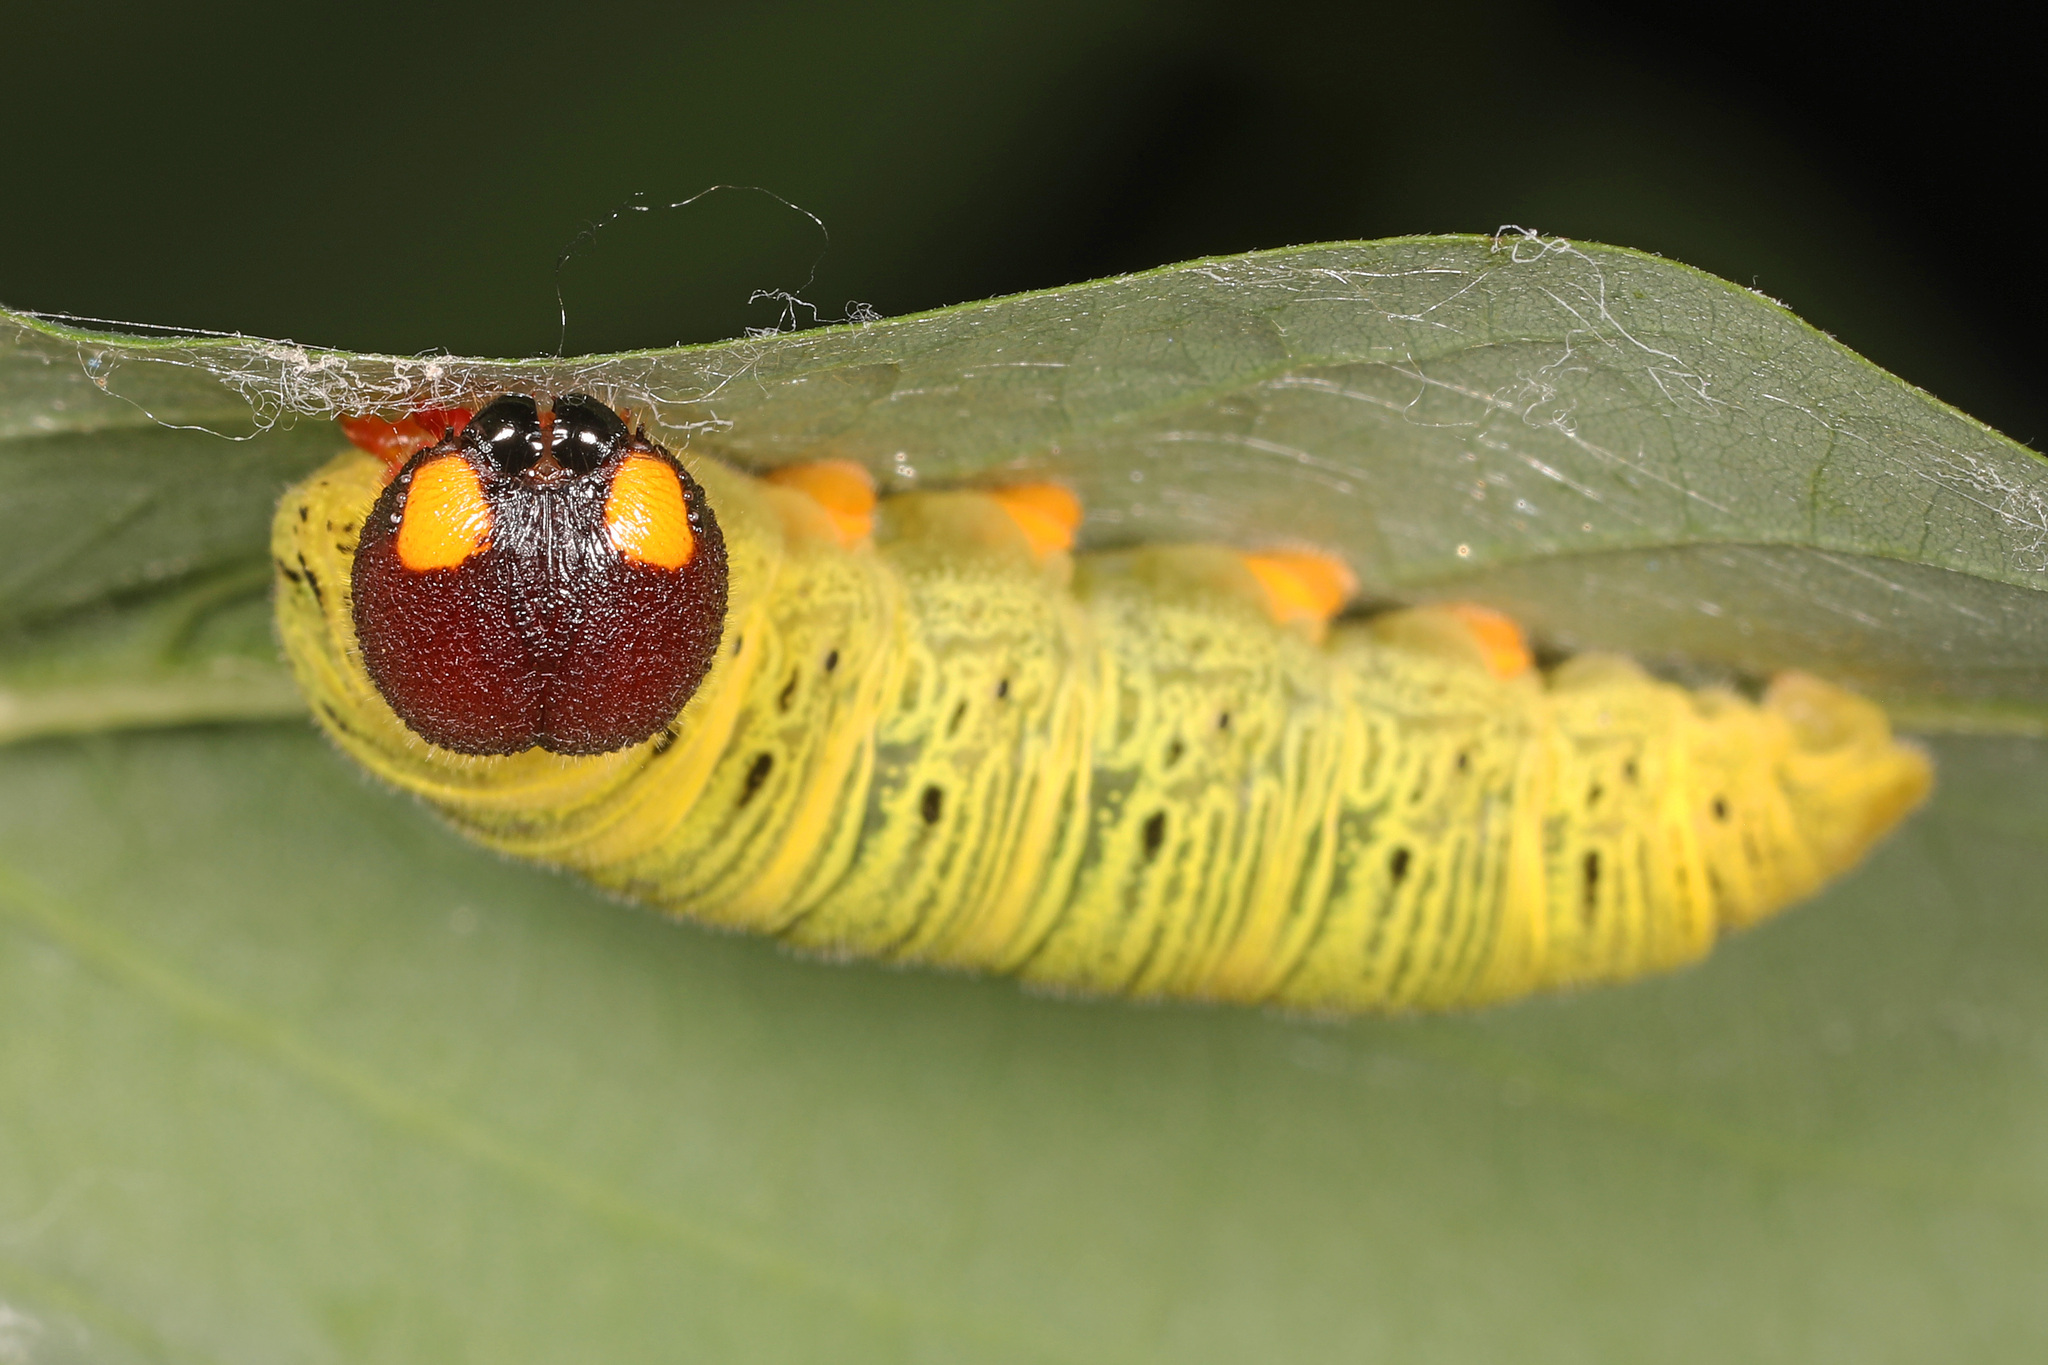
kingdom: Animalia
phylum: Arthropoda
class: Insecta
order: Lepidoptera
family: Hesperiidae
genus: Epargyreus
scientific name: Epargyreus clarus
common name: Silver-spotted skipper
